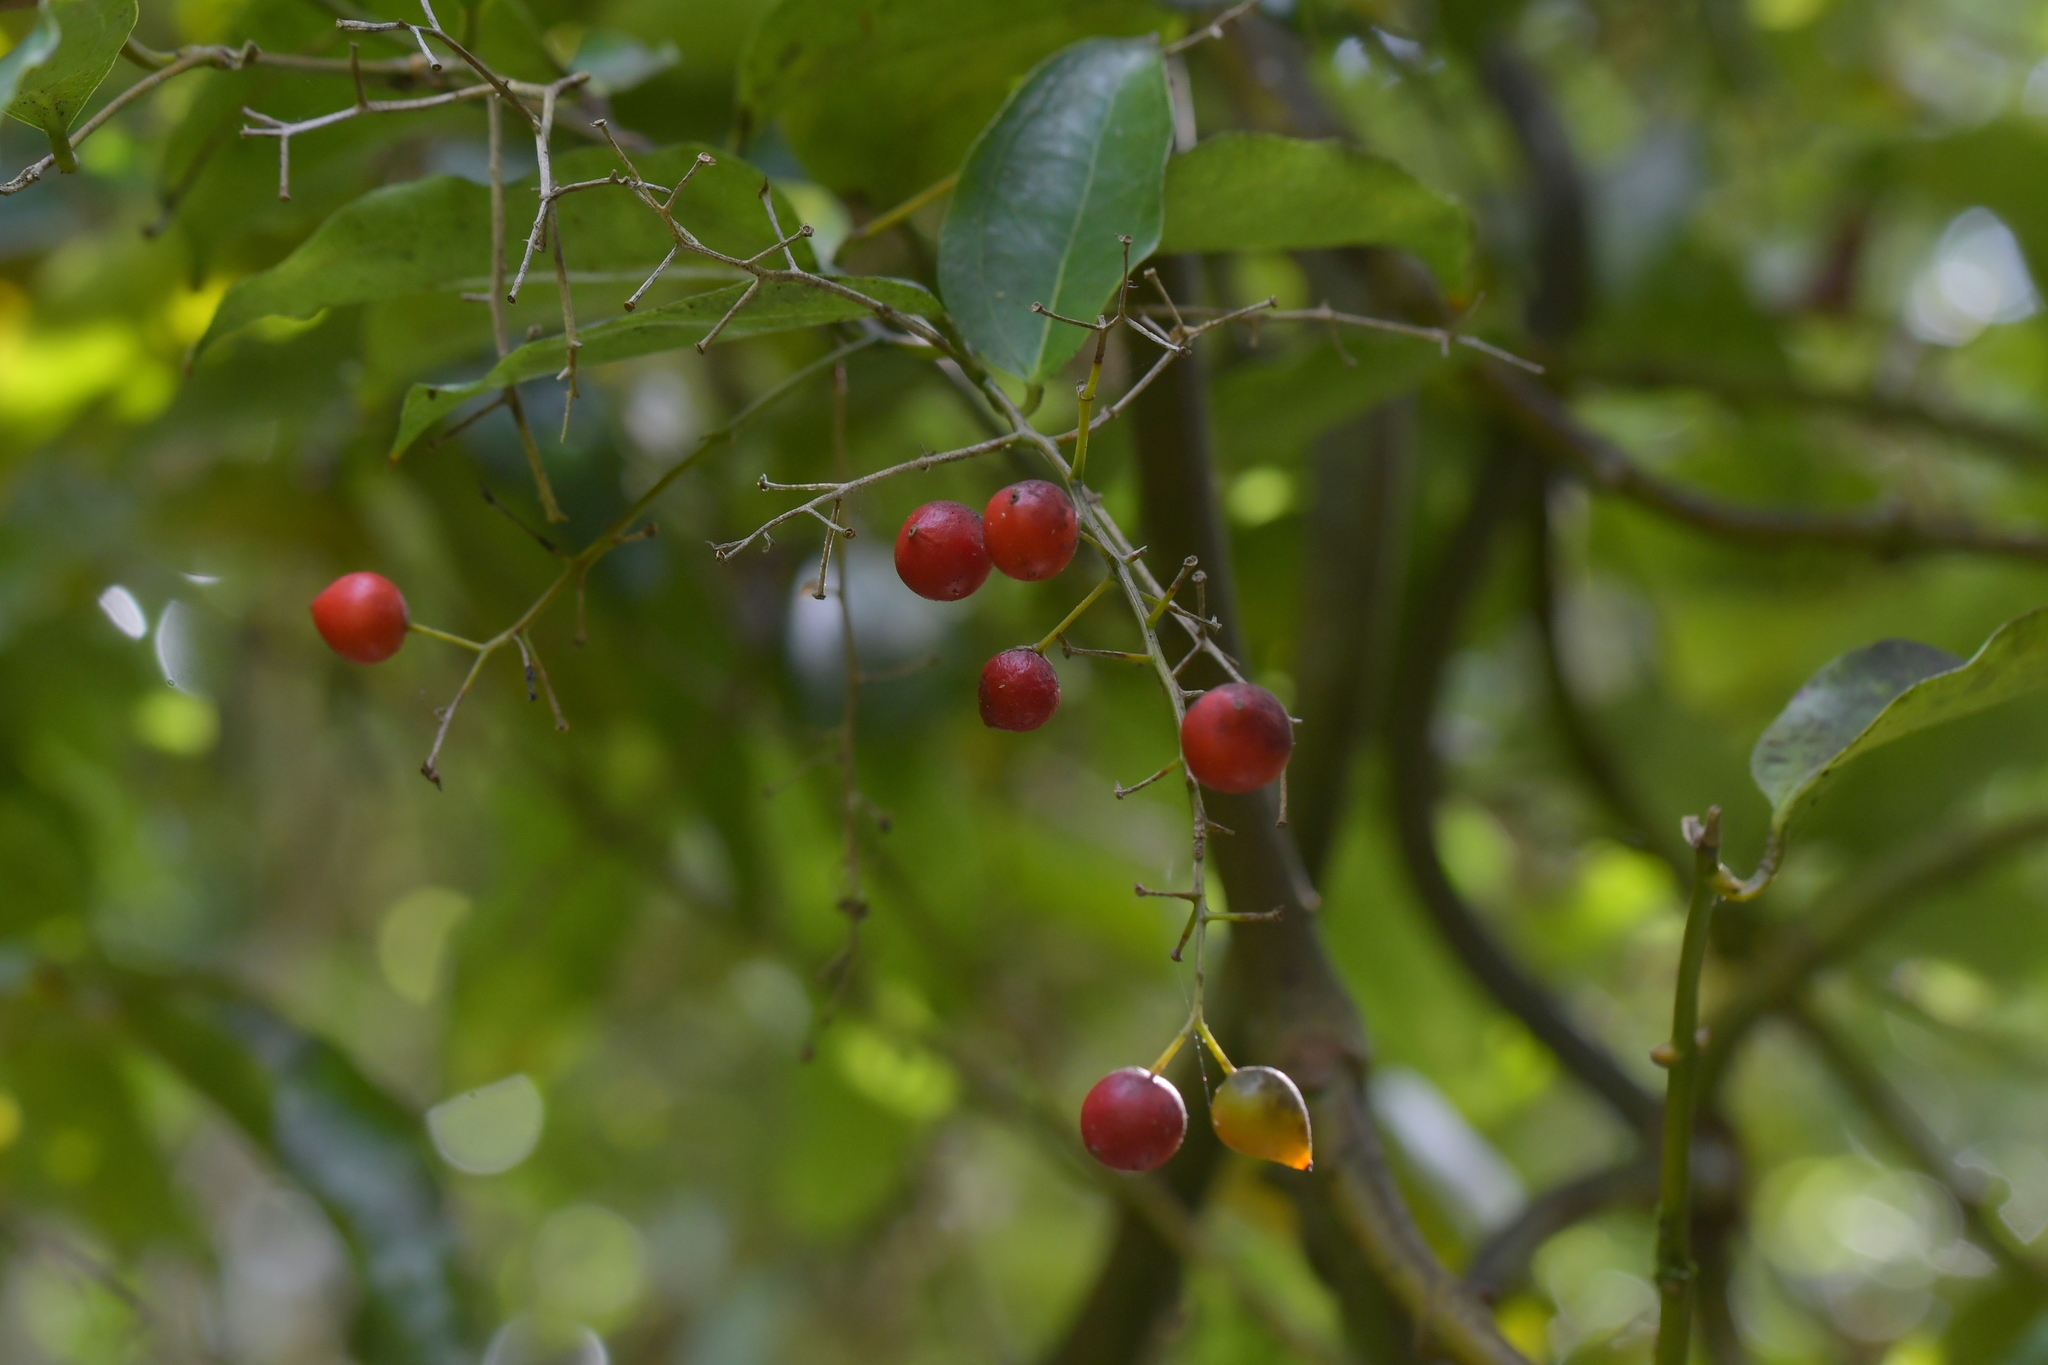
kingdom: Plantae
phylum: Tracheophyta
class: Liliopsida
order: Liliales
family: Ripogonaceae
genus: Ripogonum
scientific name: Ripogonum scandens
